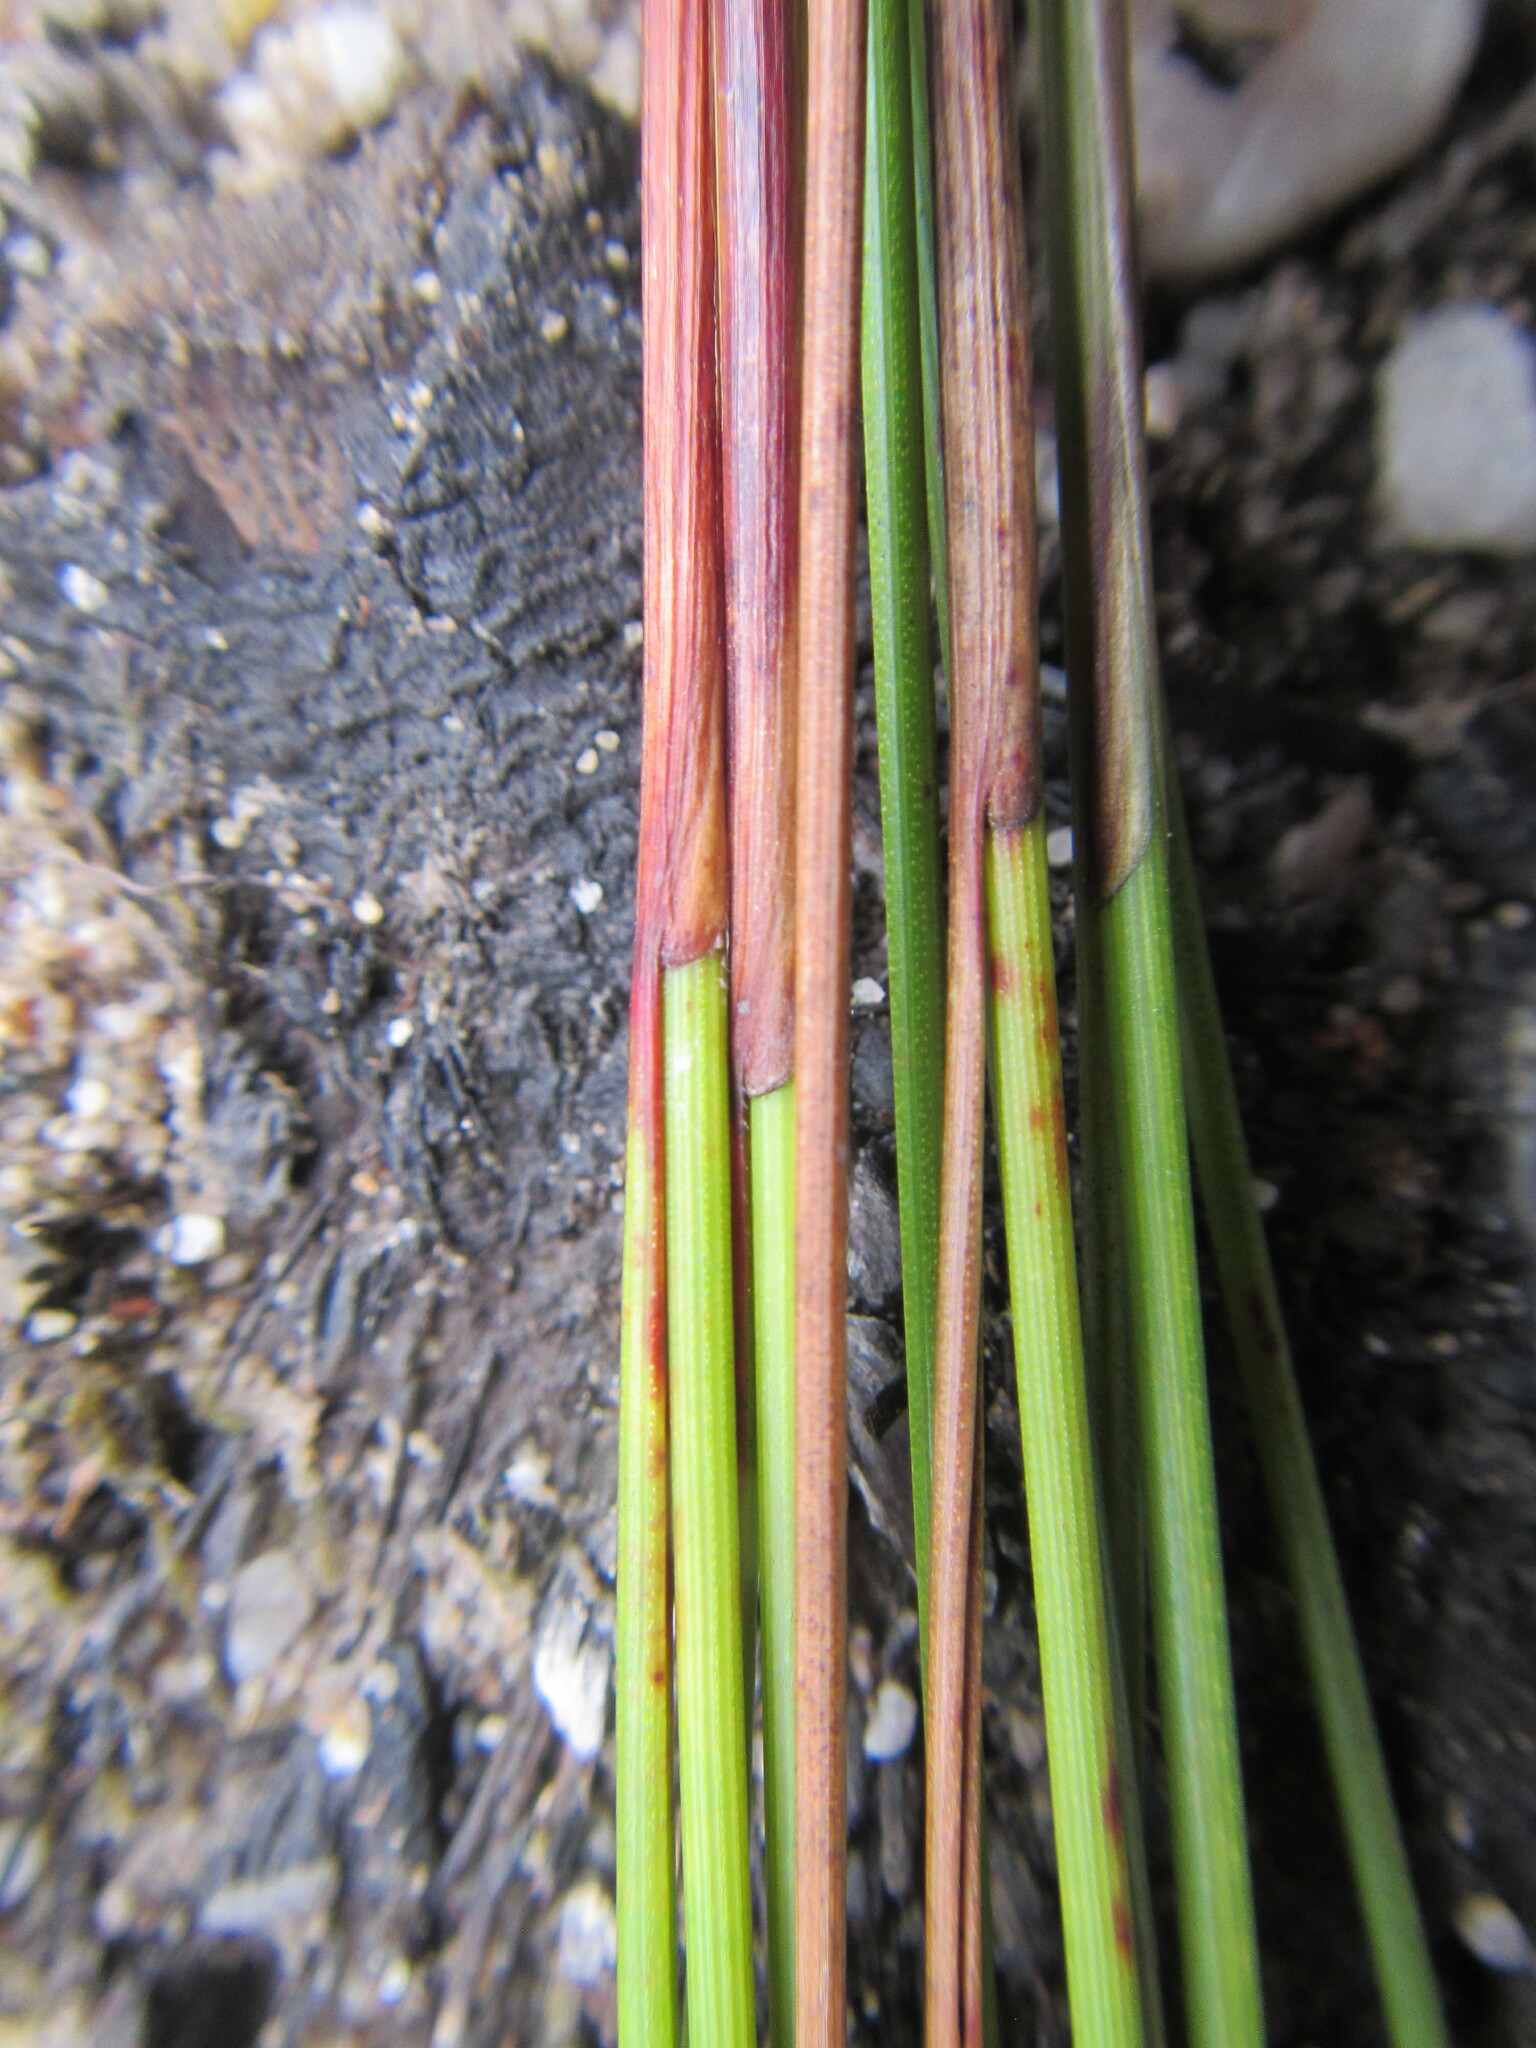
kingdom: Plantae
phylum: Tracheophyta
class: Liliopsida
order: Poales
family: Cyperaceae
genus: Schoenus
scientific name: Schoenus crassus
